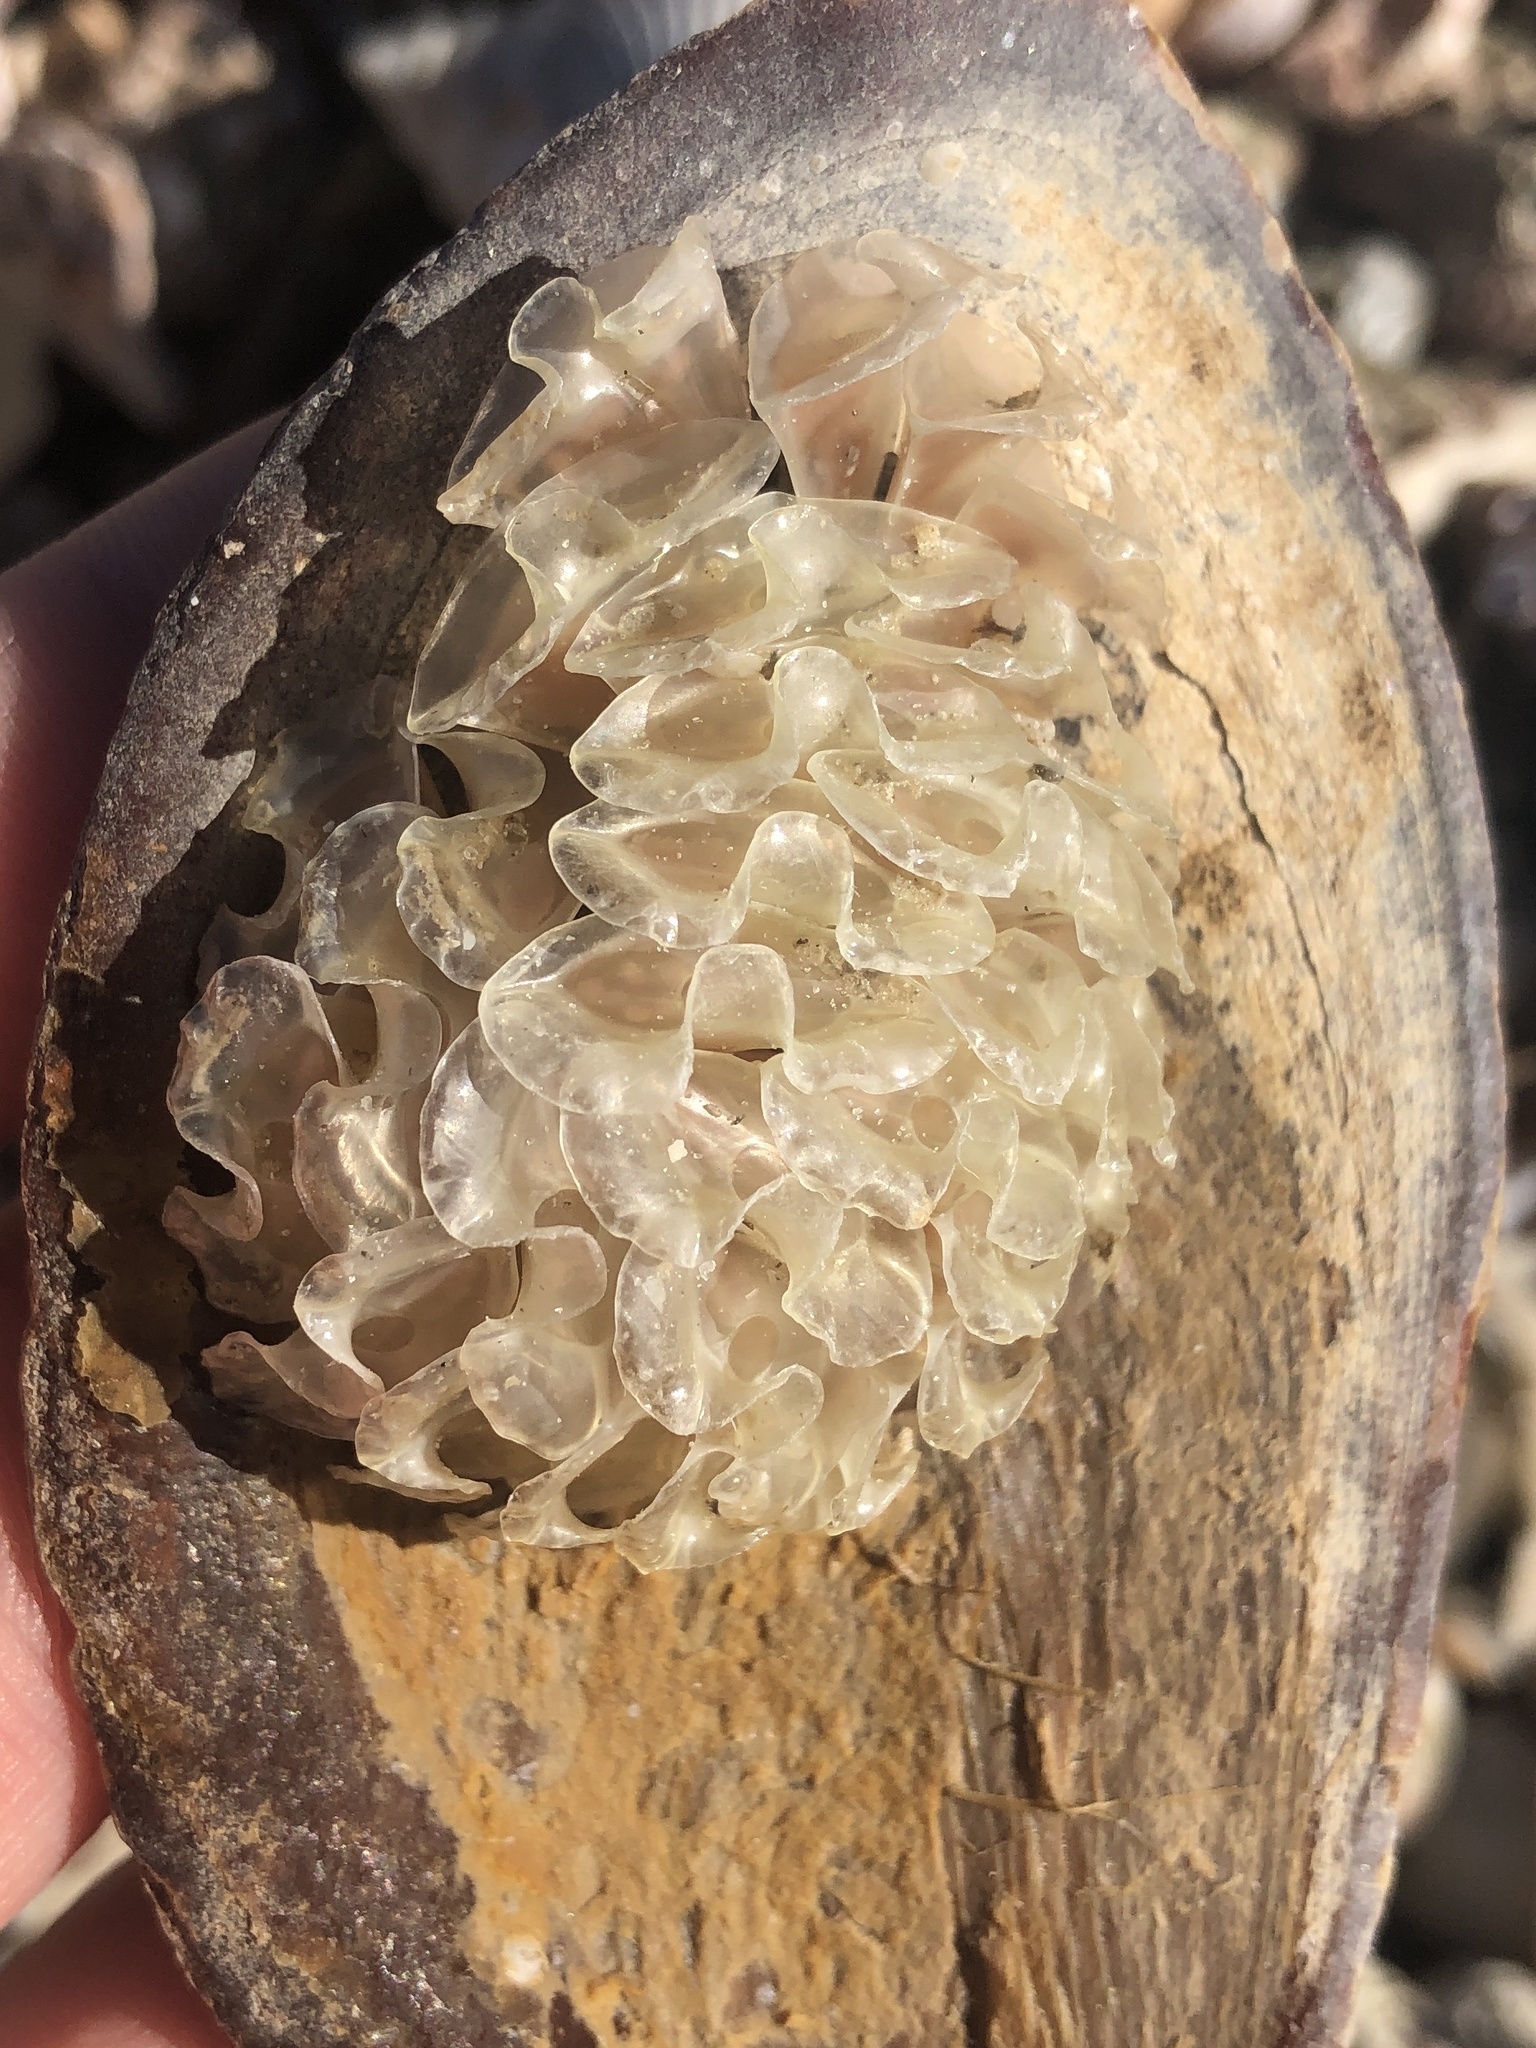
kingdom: Animalia
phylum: Mollusca
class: Gastropoda
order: Neogastropoda
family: Fasciolariidae
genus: Cinctura
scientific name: Cinctura hunteria
